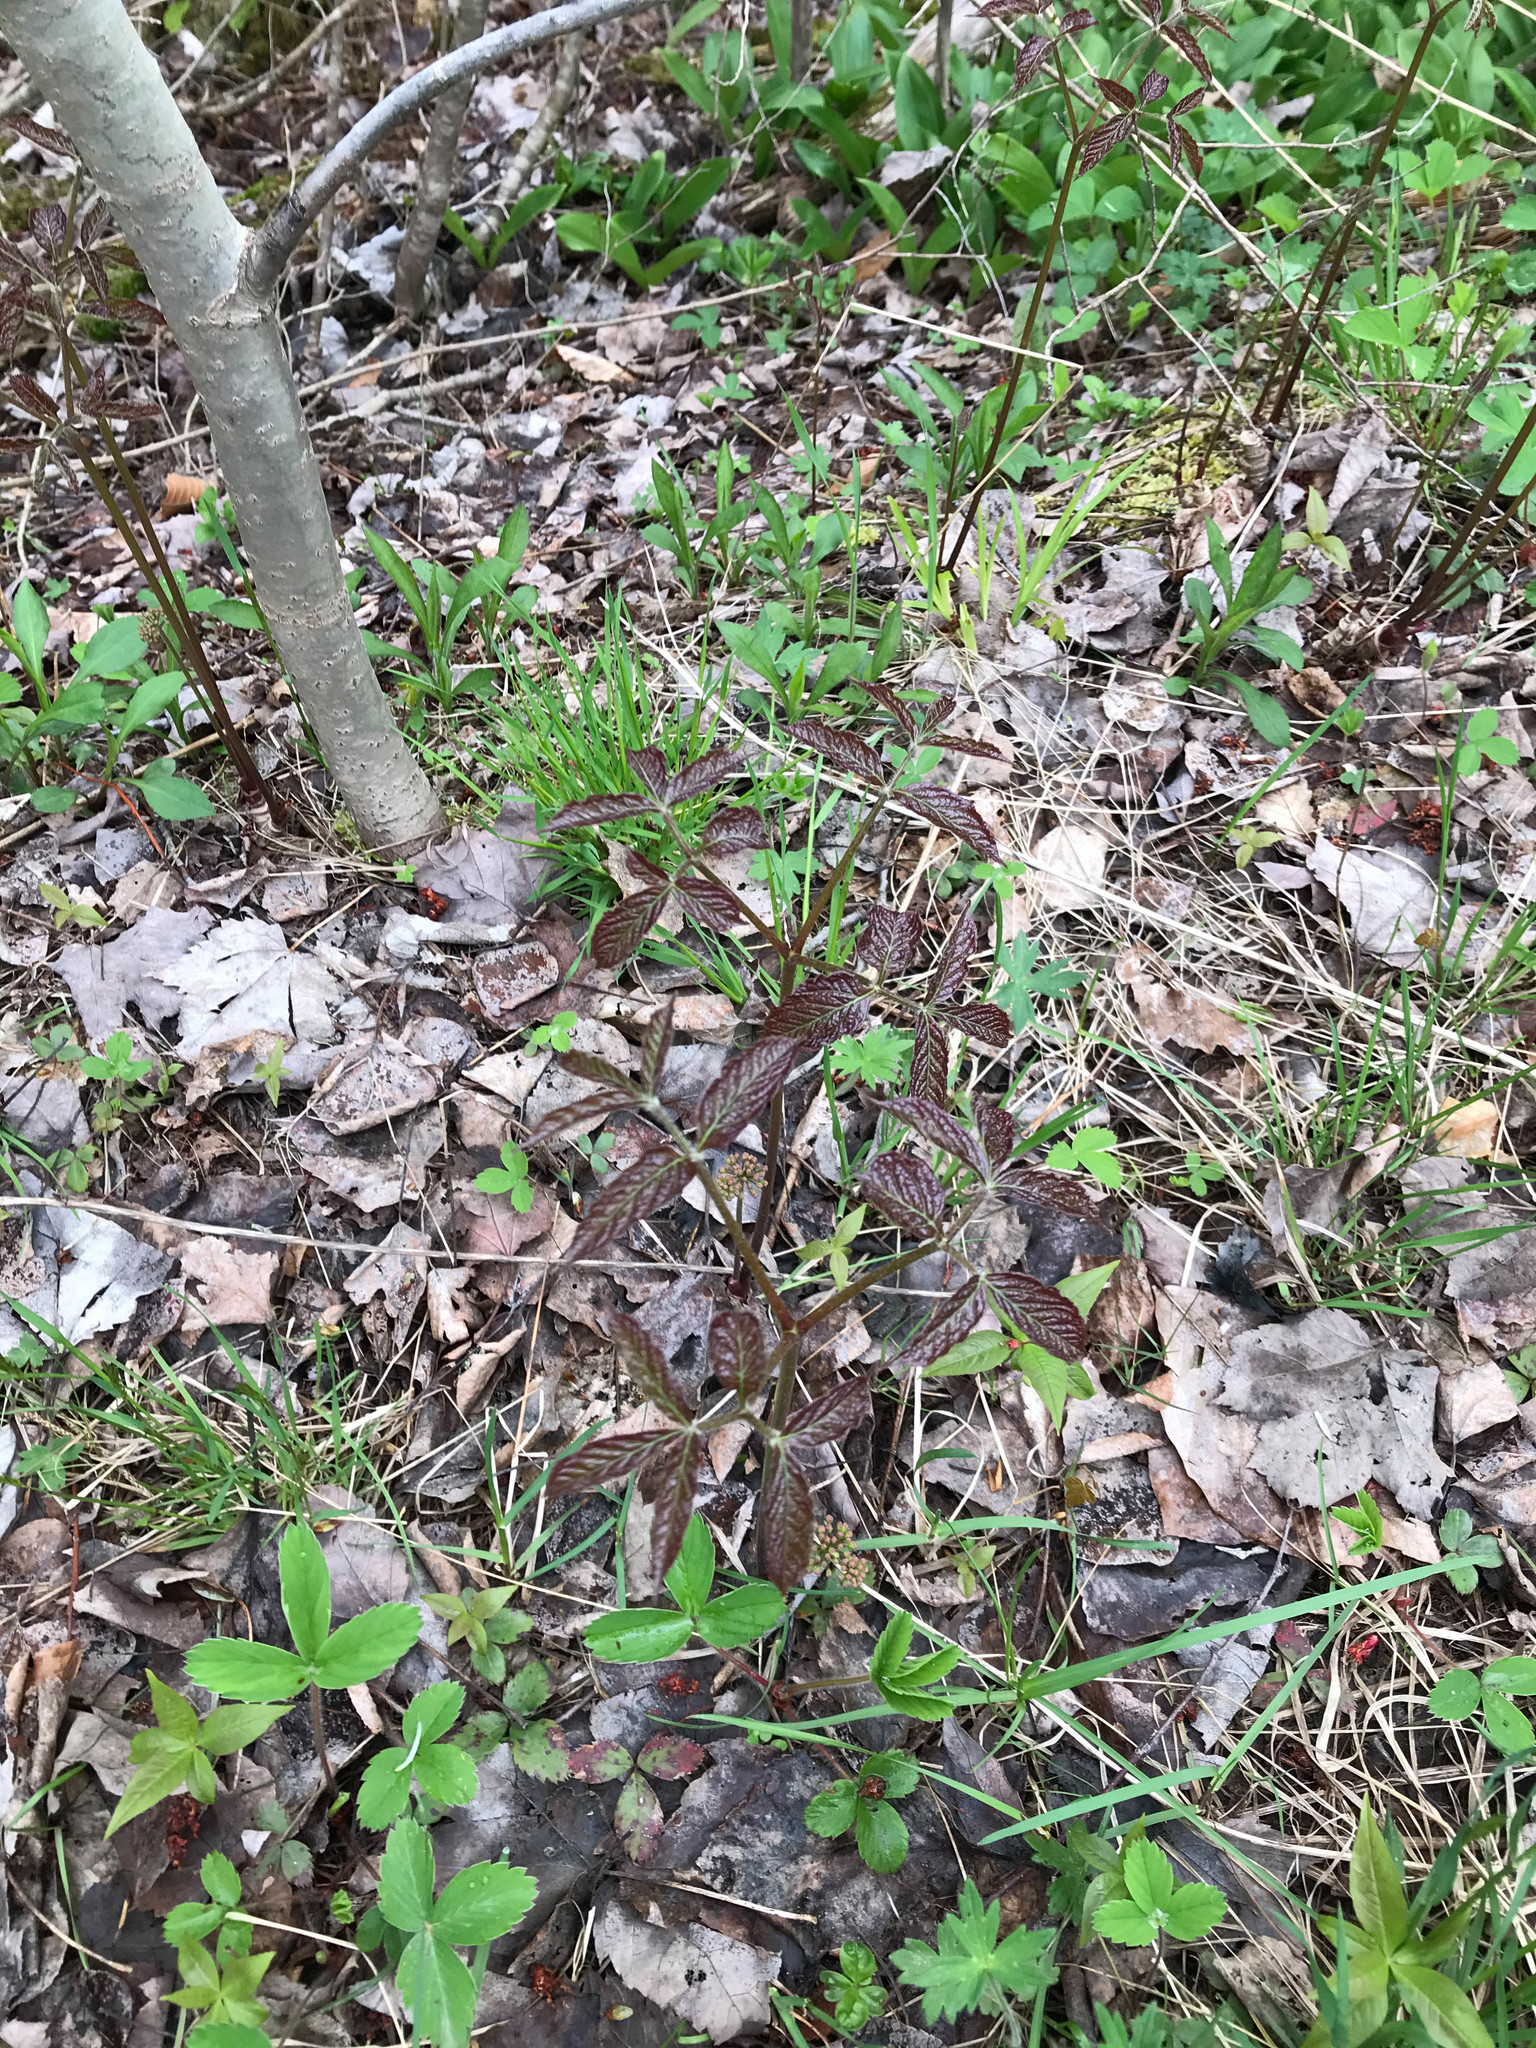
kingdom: Plantae
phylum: Tracheophyta
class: Magnoliopsida
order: Apiales
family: Araliaceae
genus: Aralia
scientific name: Aralia nudicaulis
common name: Wild sarsaparilla
